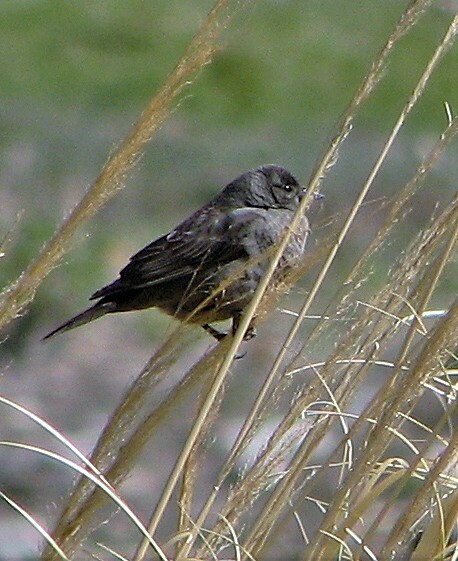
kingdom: Animalia
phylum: Chordata
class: Aves
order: Passeriformes
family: Icteridae
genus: Molothrus
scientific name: Molothrus bonariensis
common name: Shiny cowbird
